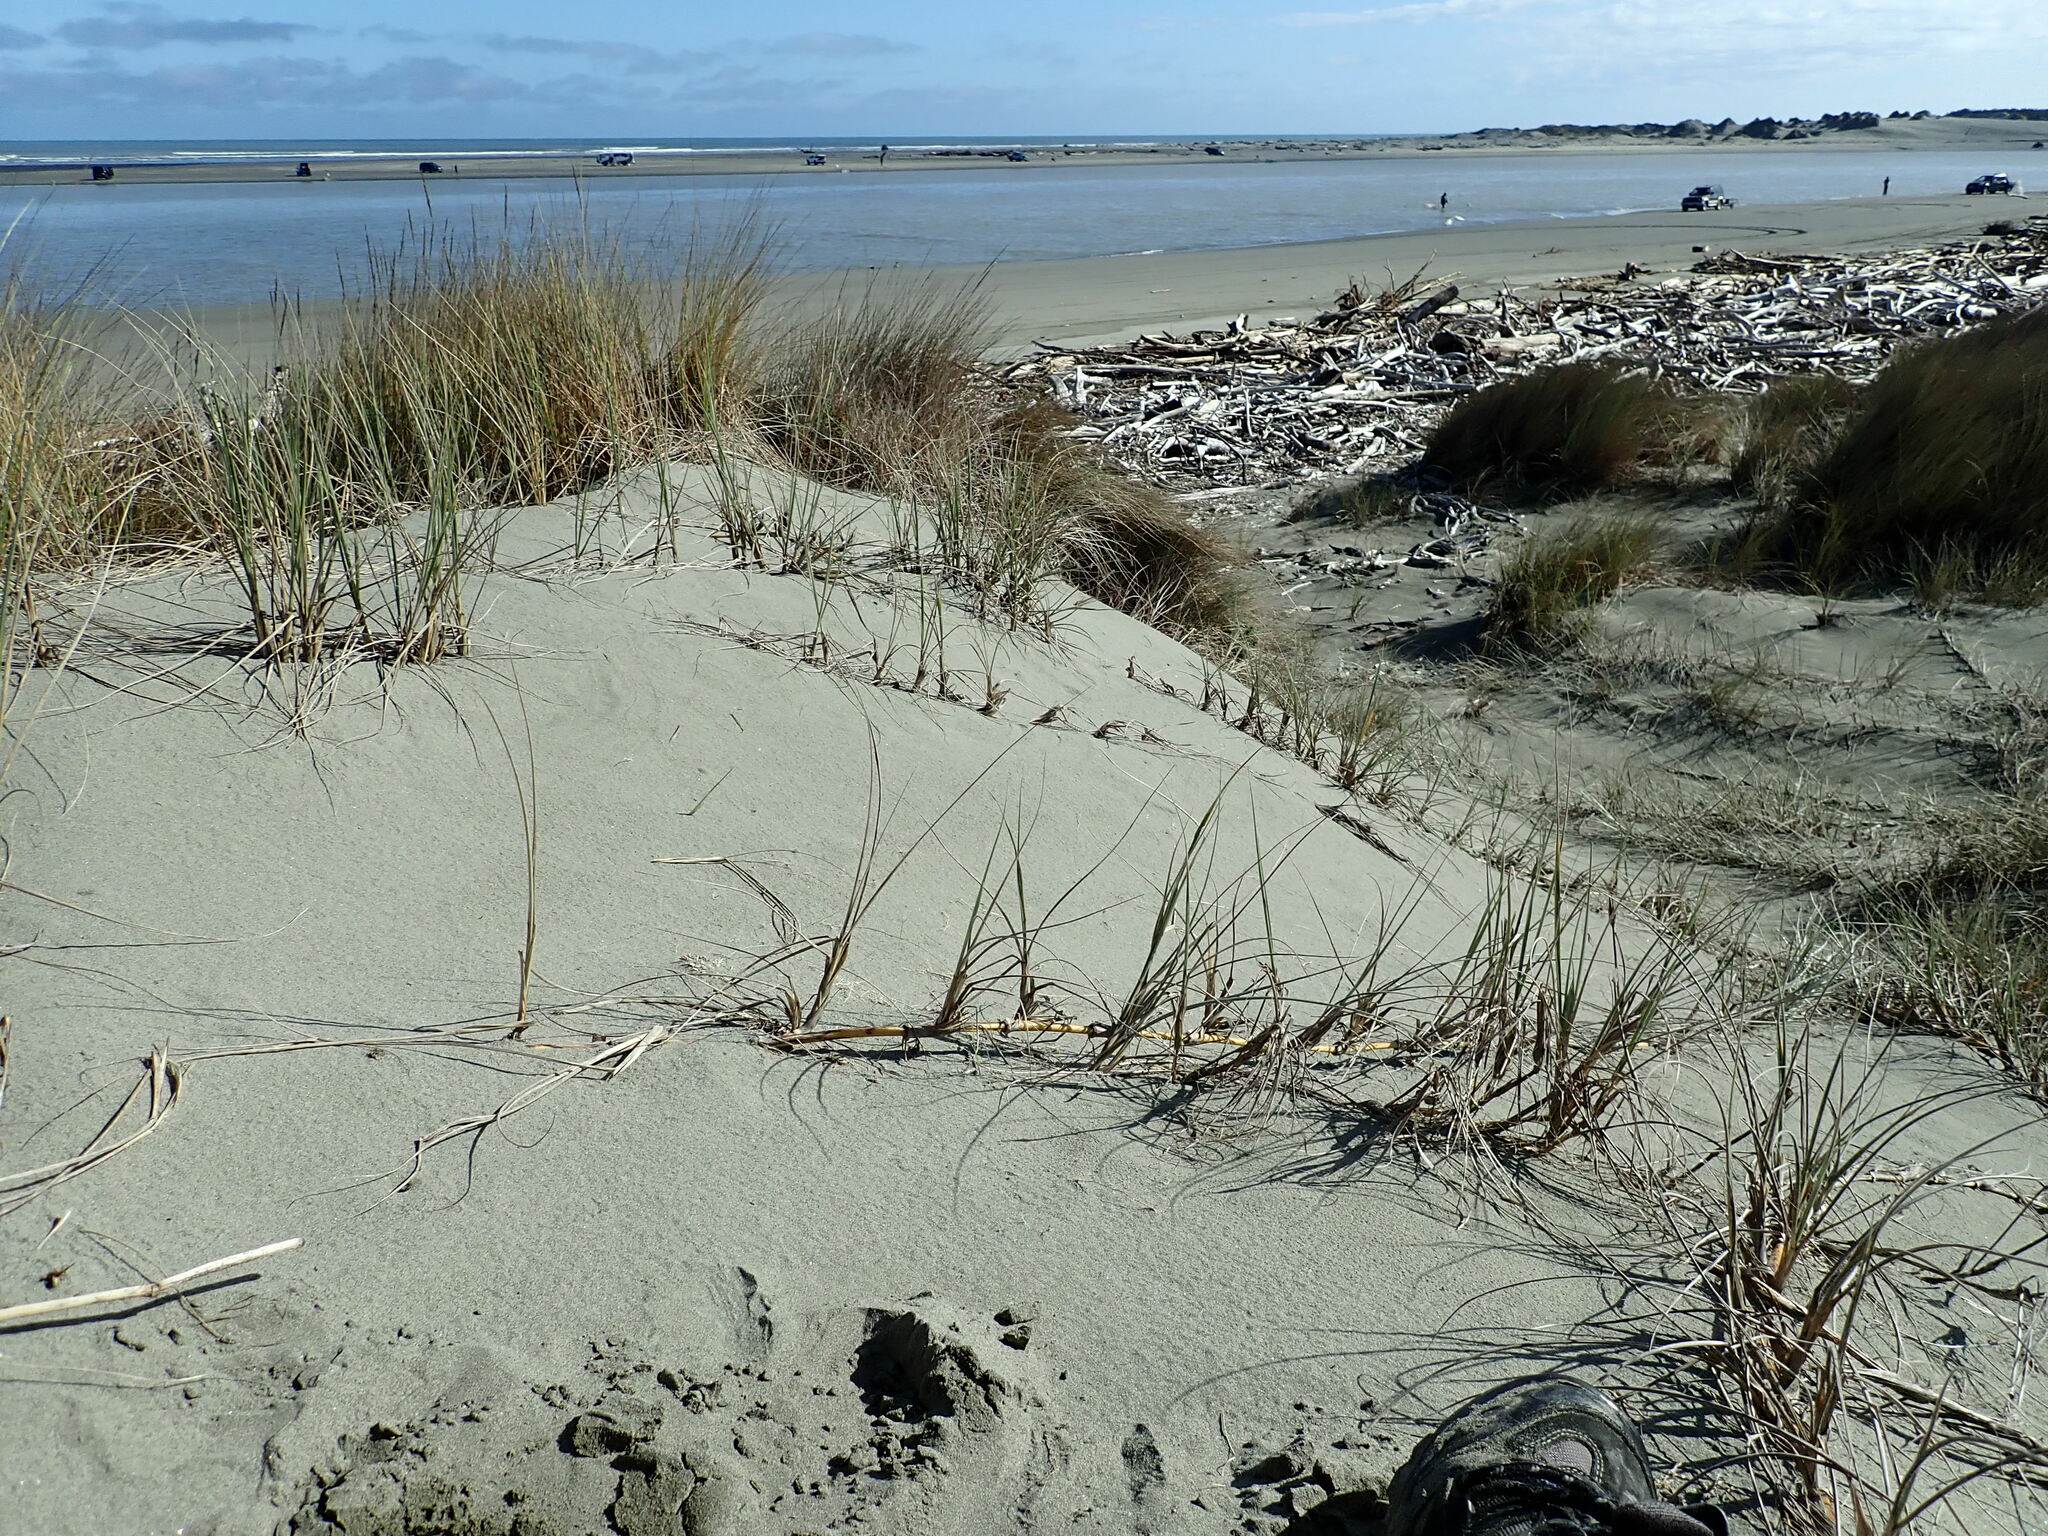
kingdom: Plantae
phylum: Tracheophyta
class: Liliopsida
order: Poales
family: Poaceae
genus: Spinifex
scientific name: Spinifex sericeus
